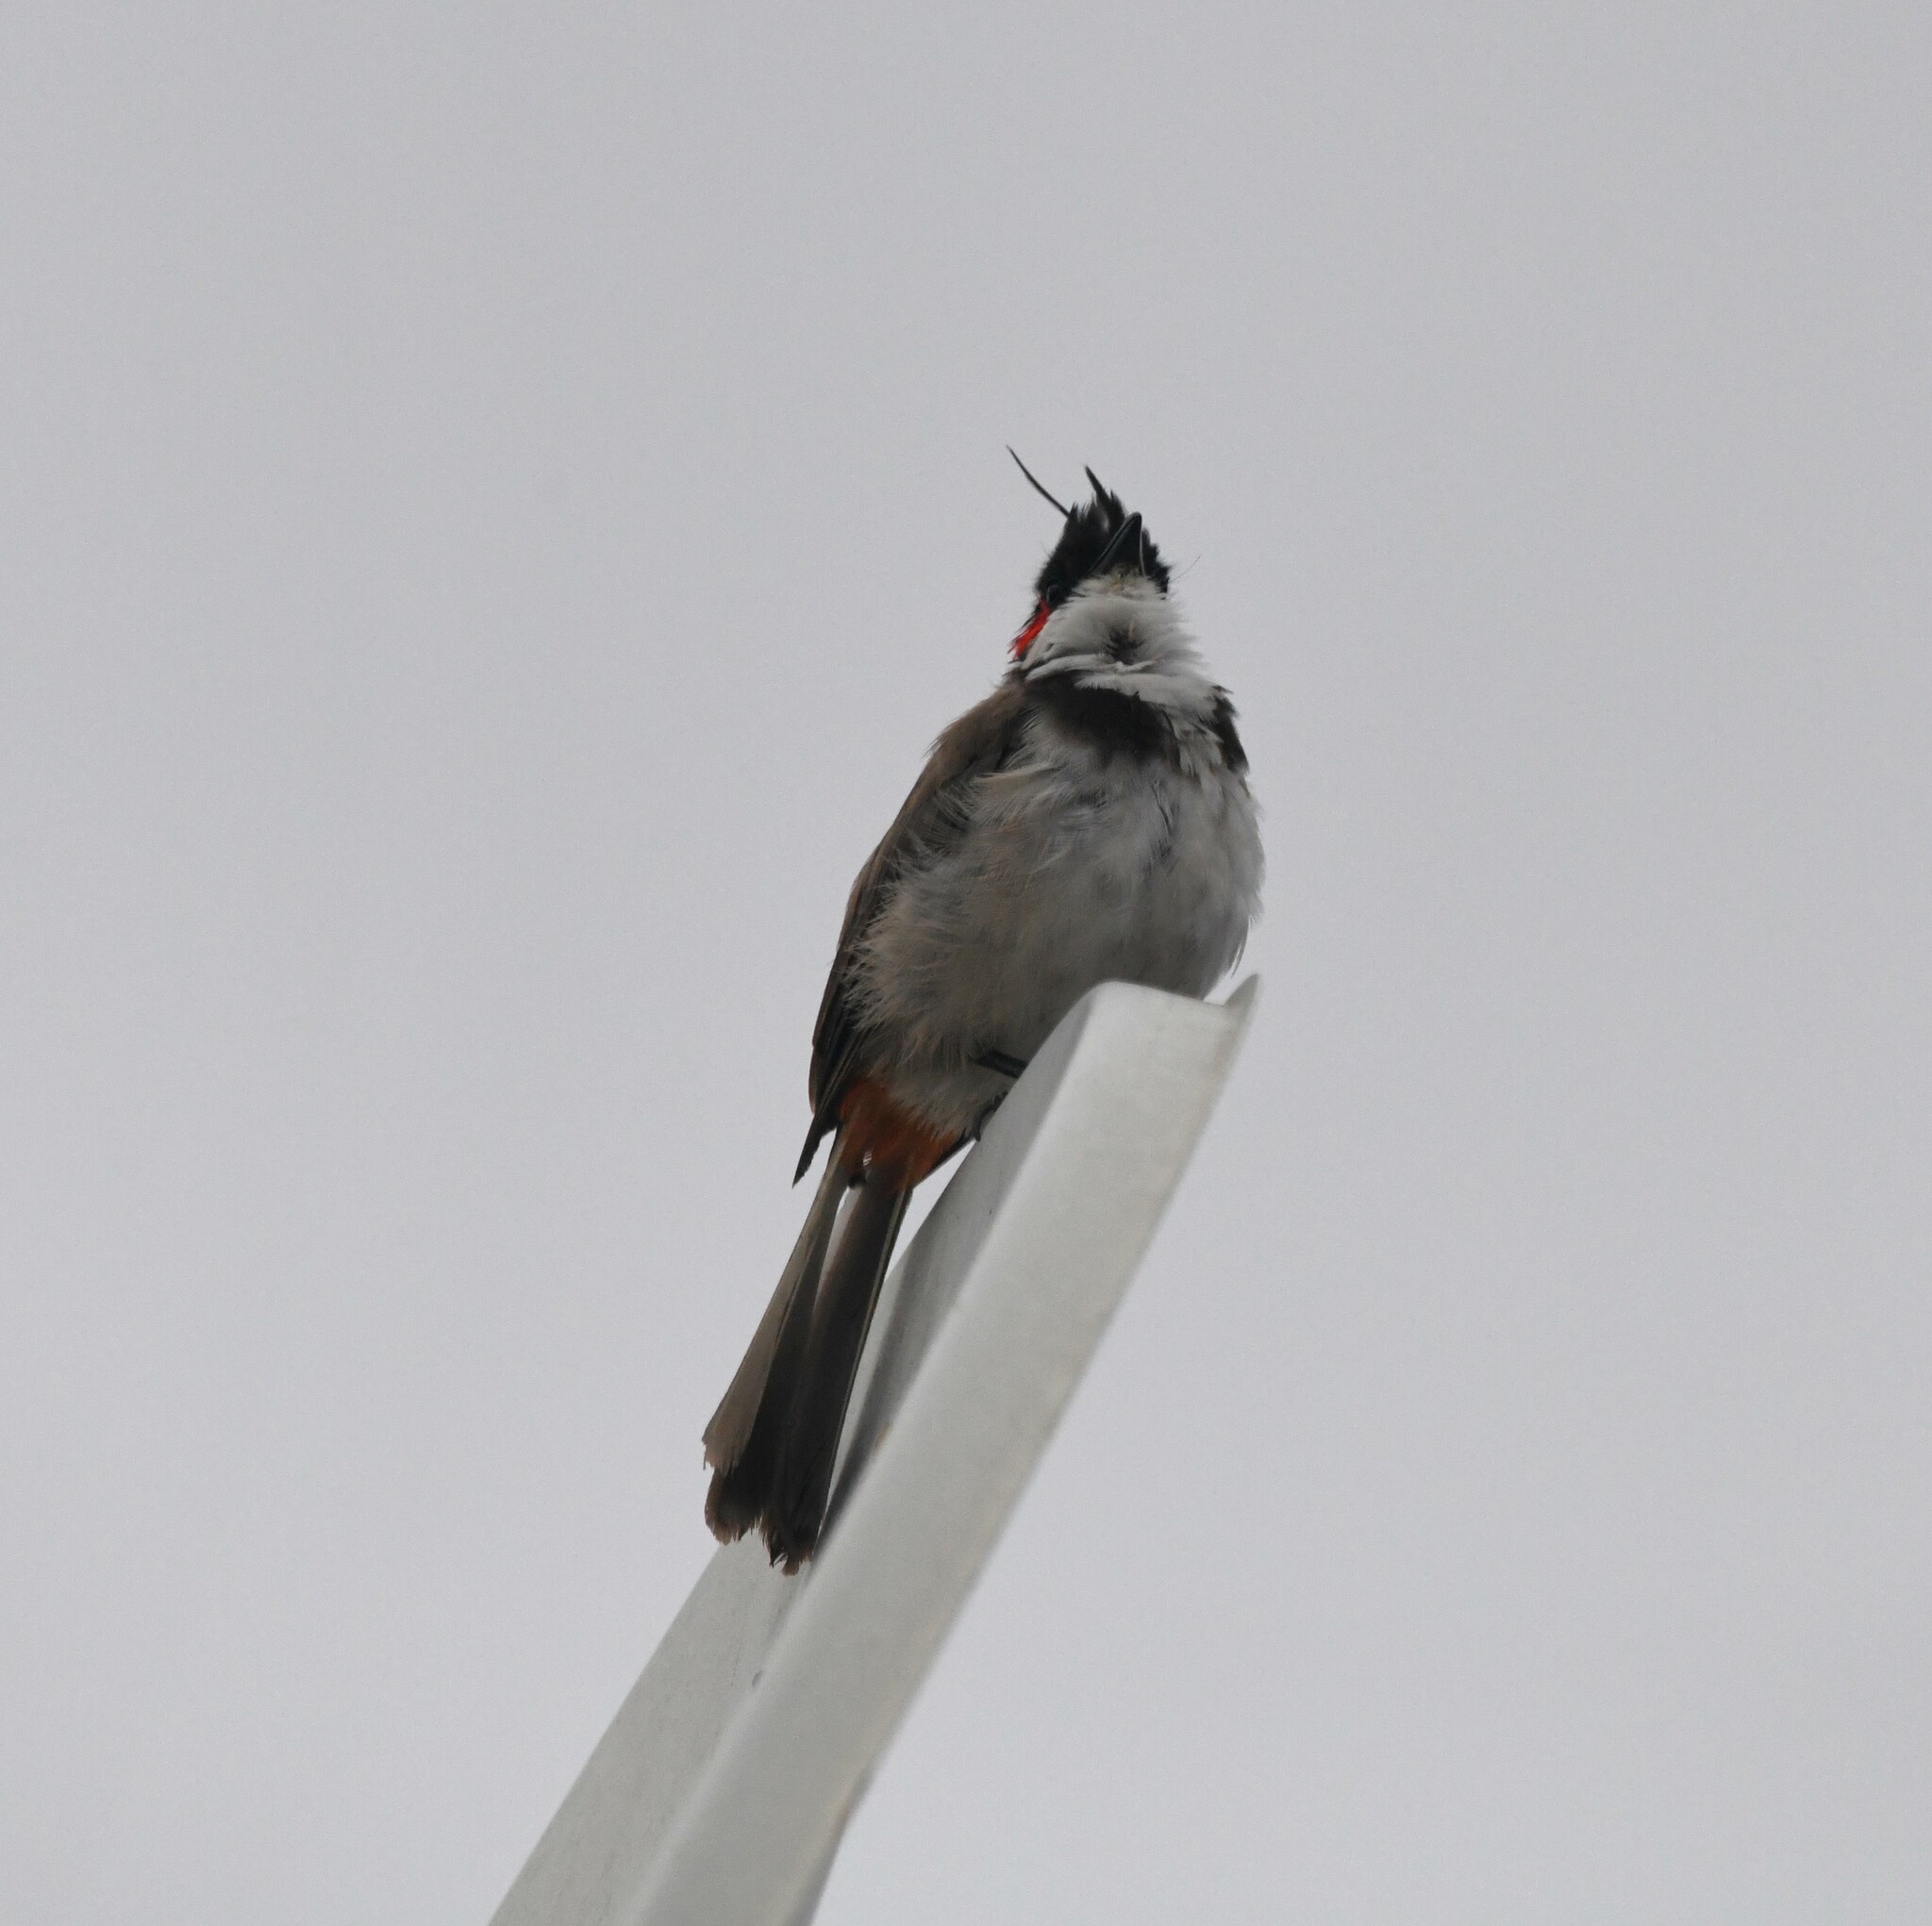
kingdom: Animalia
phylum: Chordata
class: Aves
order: Passeriformes
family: Pycnonotidae
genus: Pycnonotus
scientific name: Pycnonotus jocosus
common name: Red-whiskered bulbul
